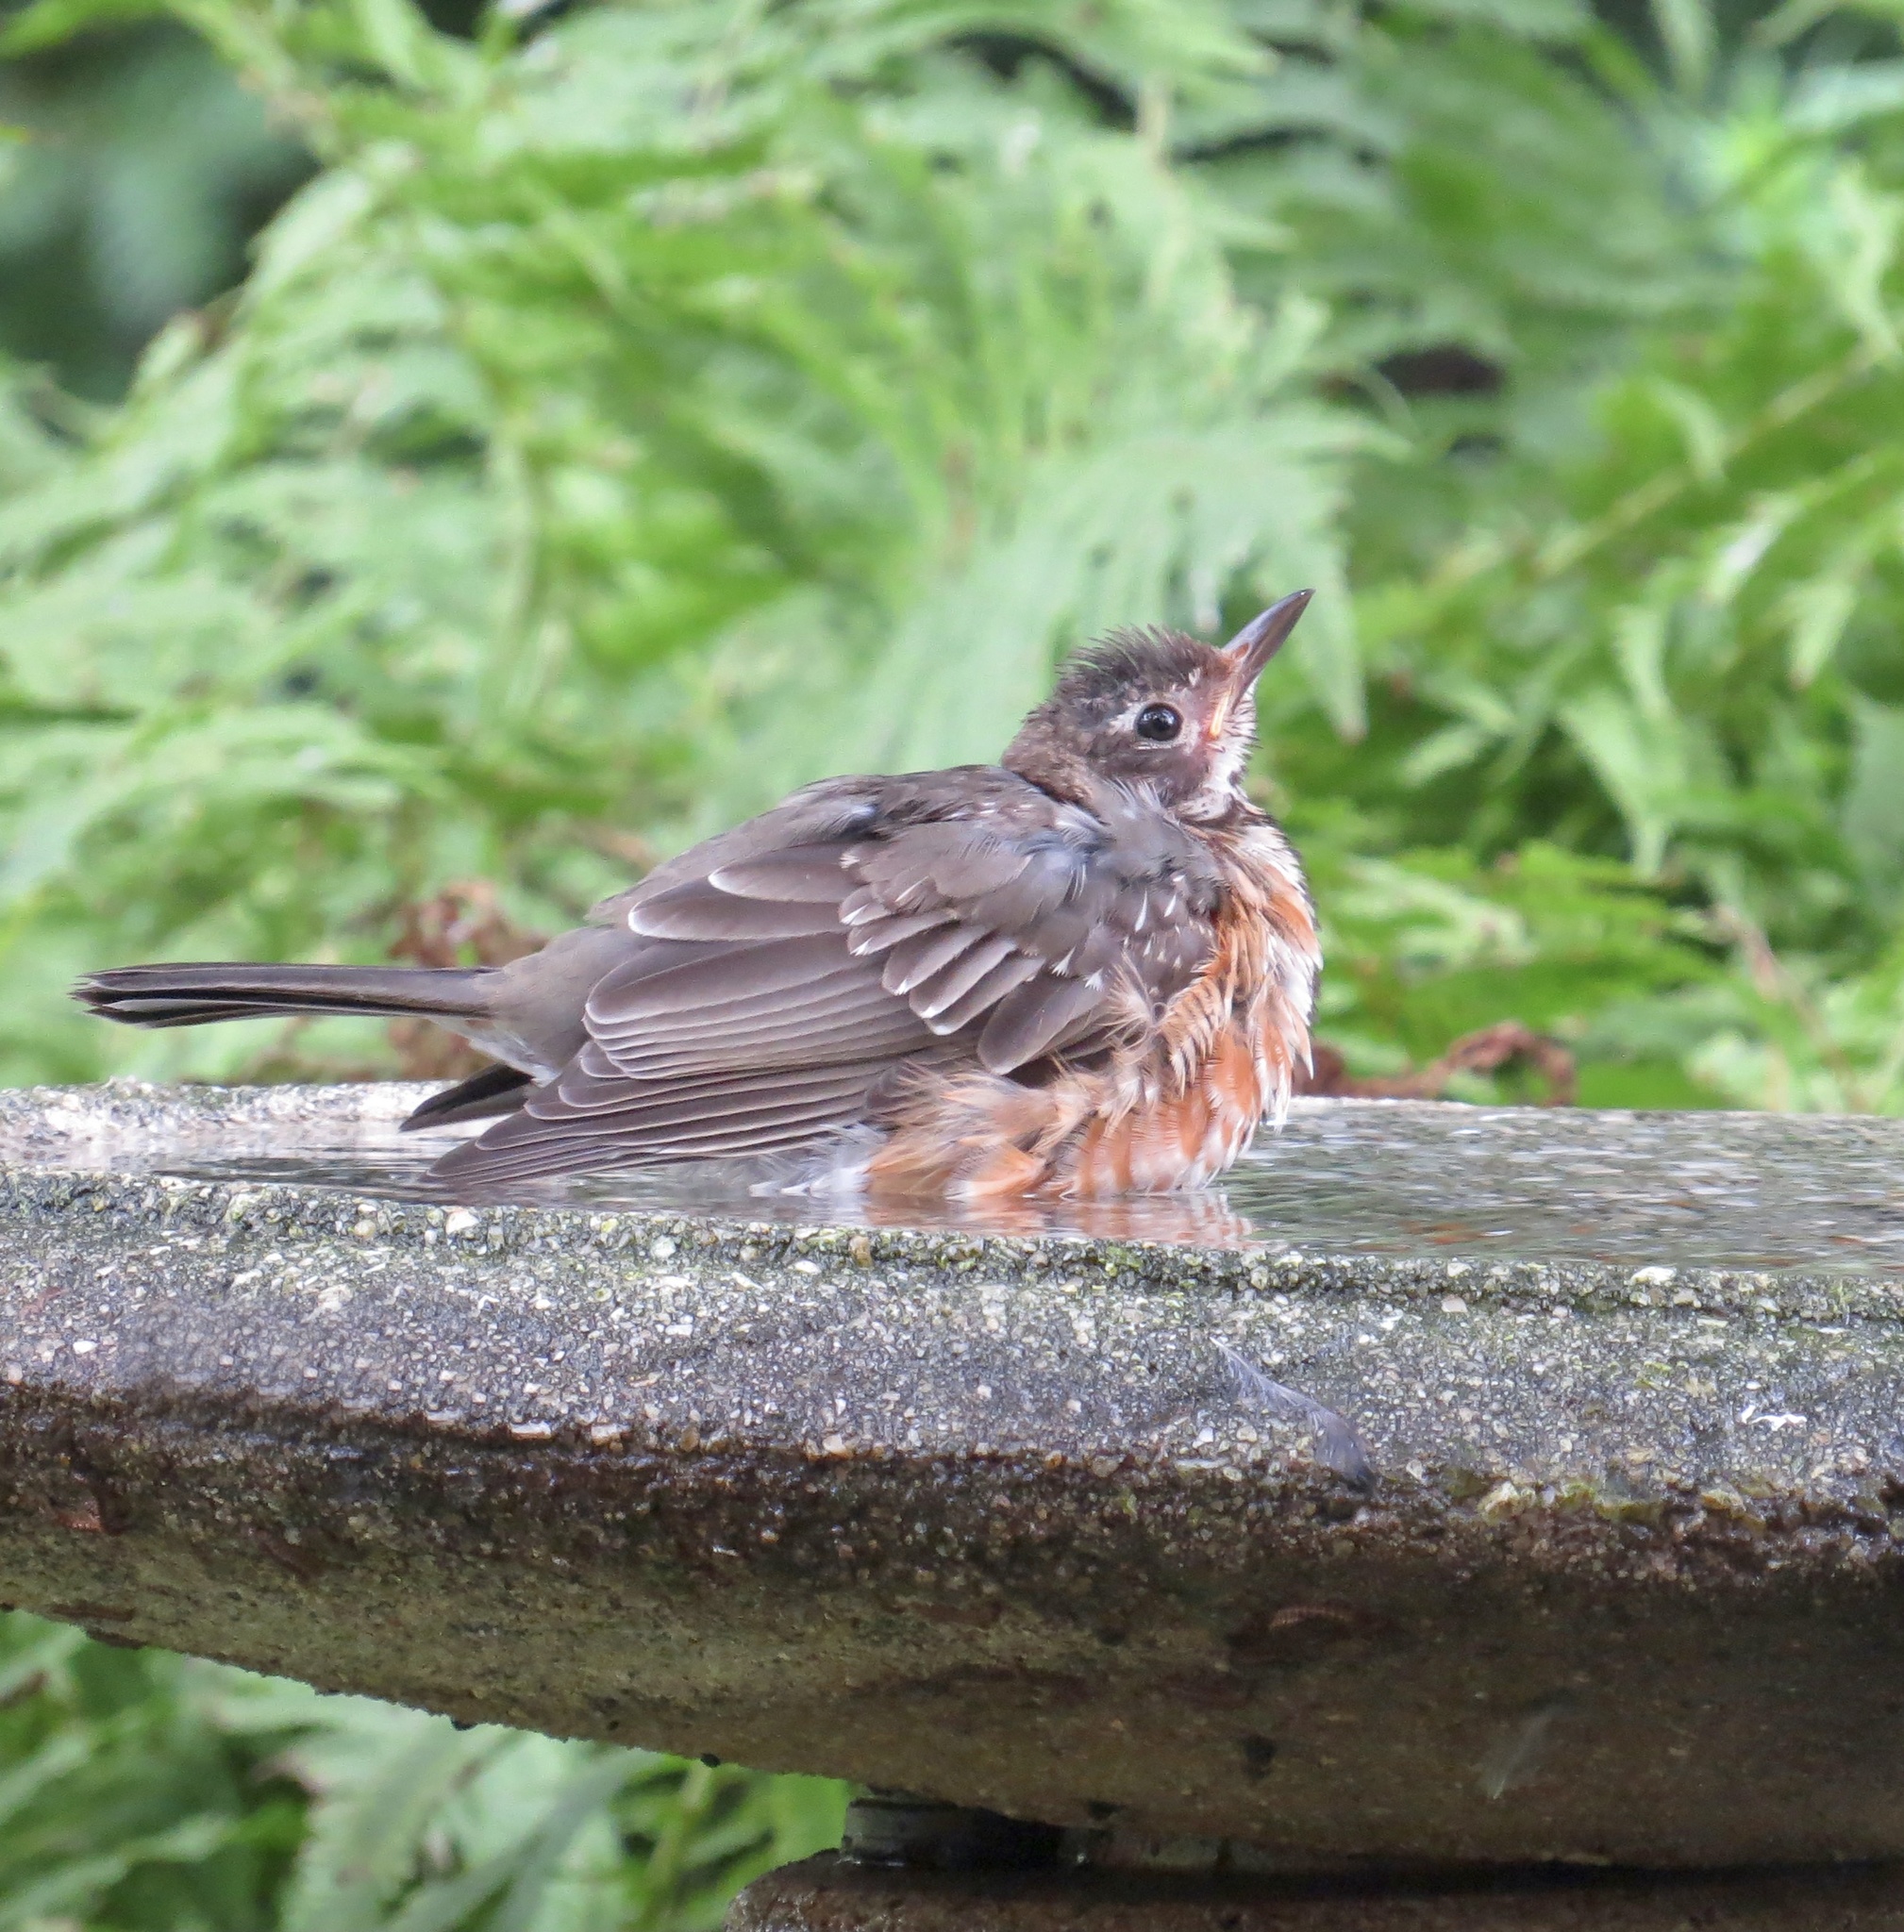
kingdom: Animalia
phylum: Chordata
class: Aves
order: Passeriformes
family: Turdidae
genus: Turdus
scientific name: Turdus migratorius
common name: American robin
